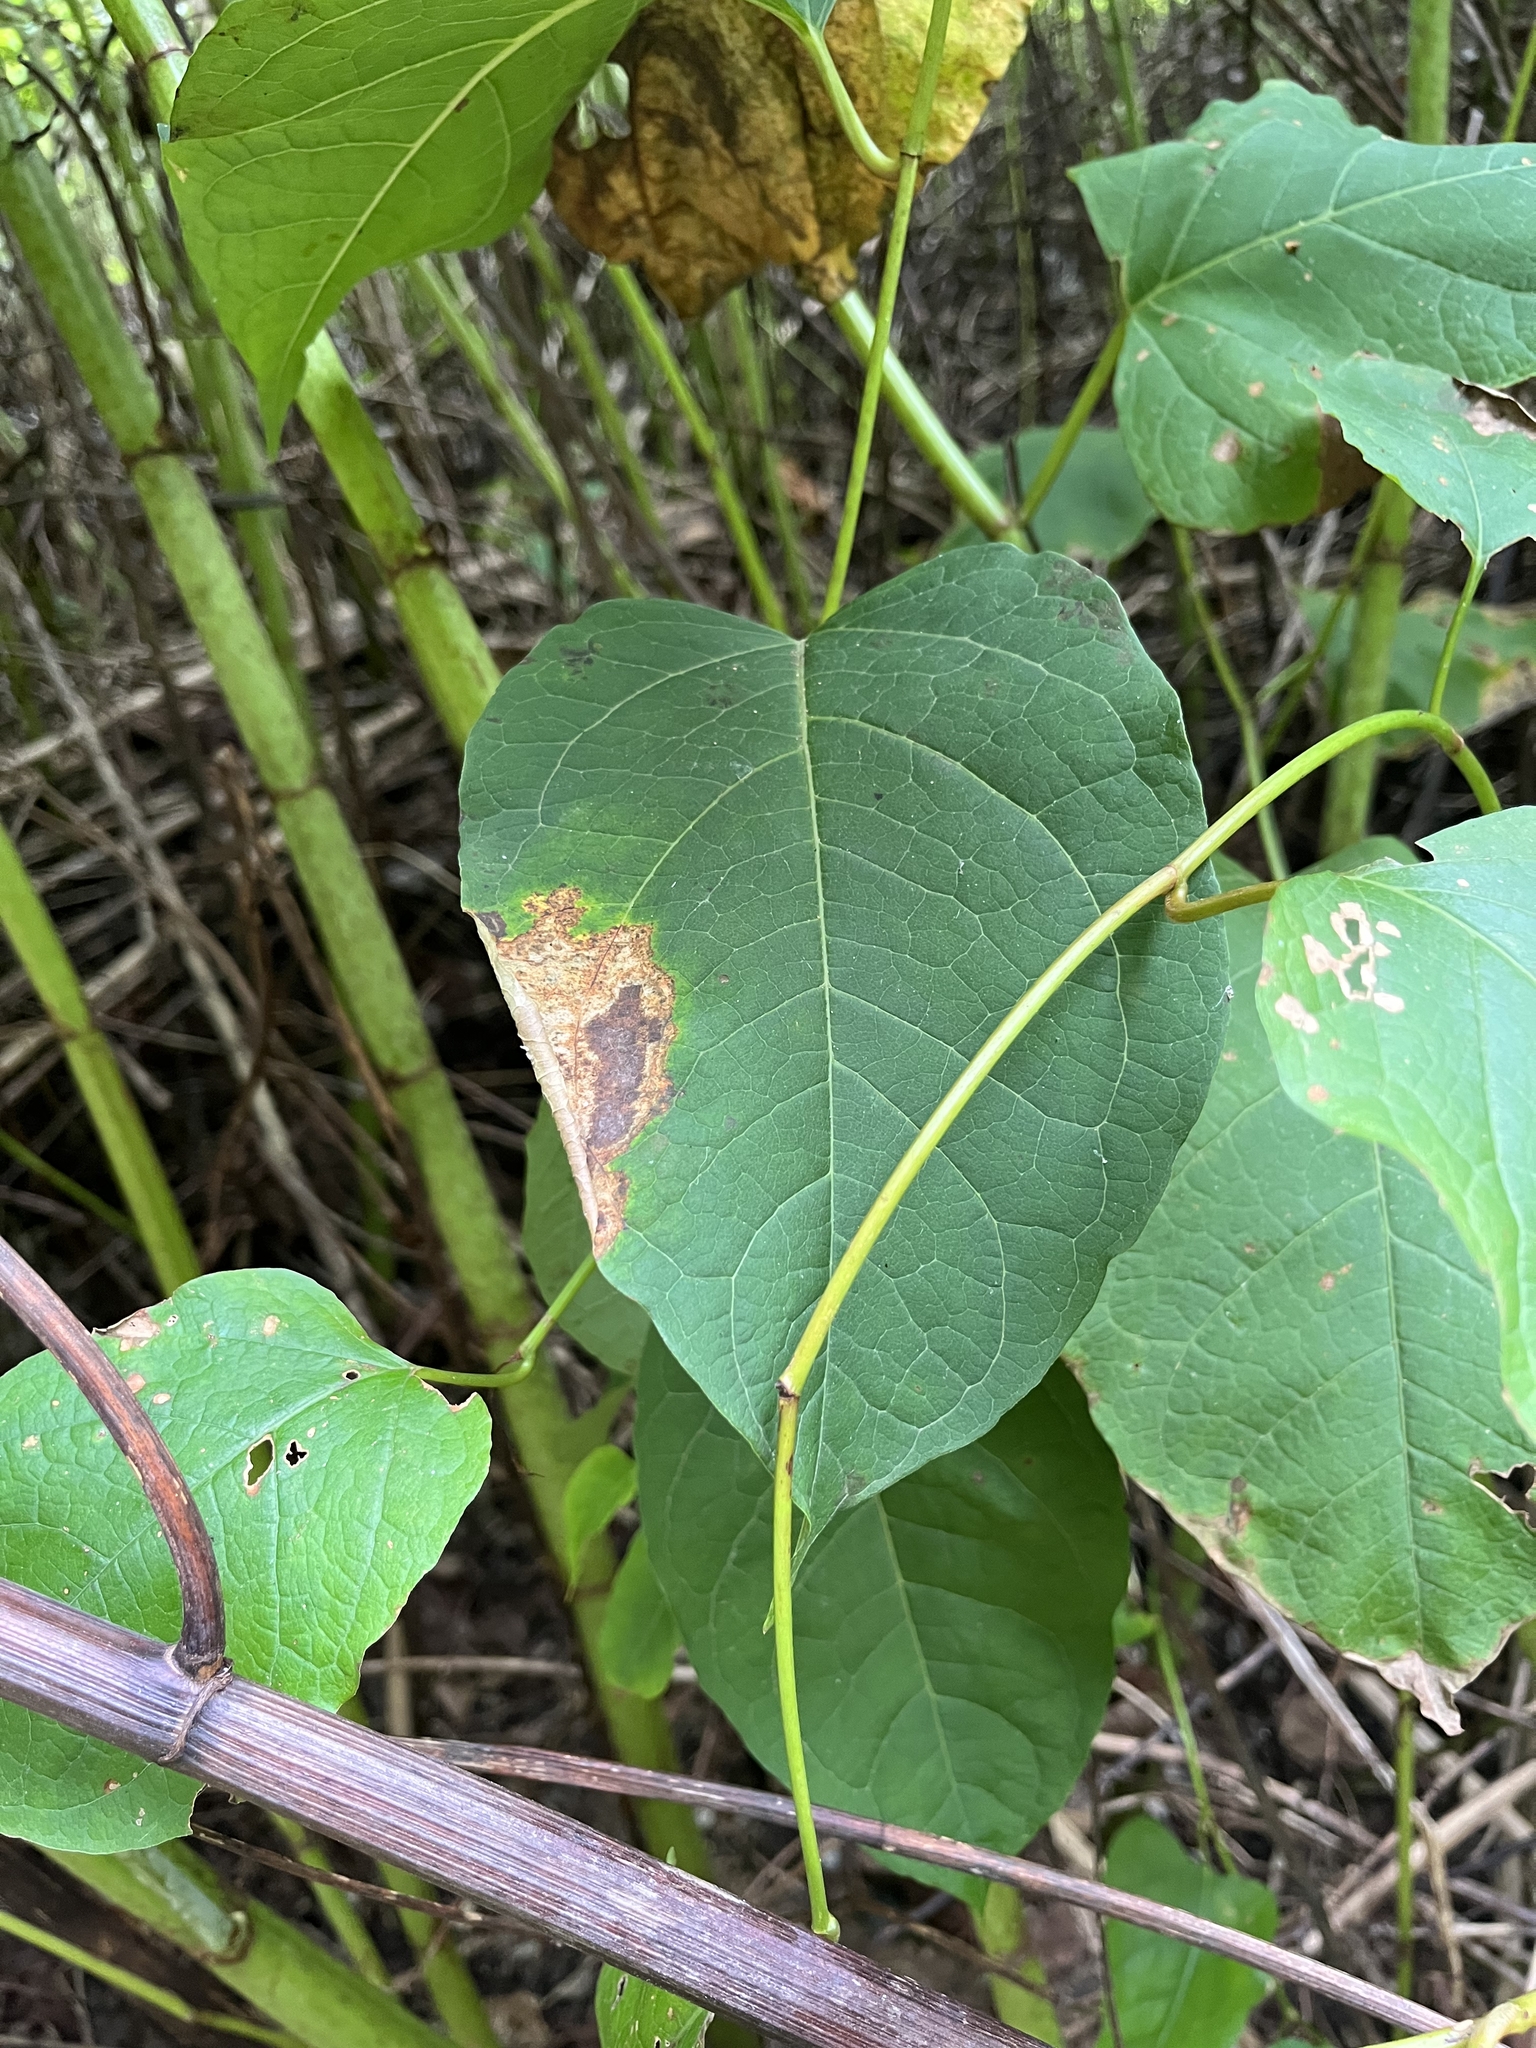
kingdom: Plantae
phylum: Tracheophyta
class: Magnoliopsida
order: Caryophyllales
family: Polygonaceae
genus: Reynoutria
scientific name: Reynoutria japonica
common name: Japanese knotweed
